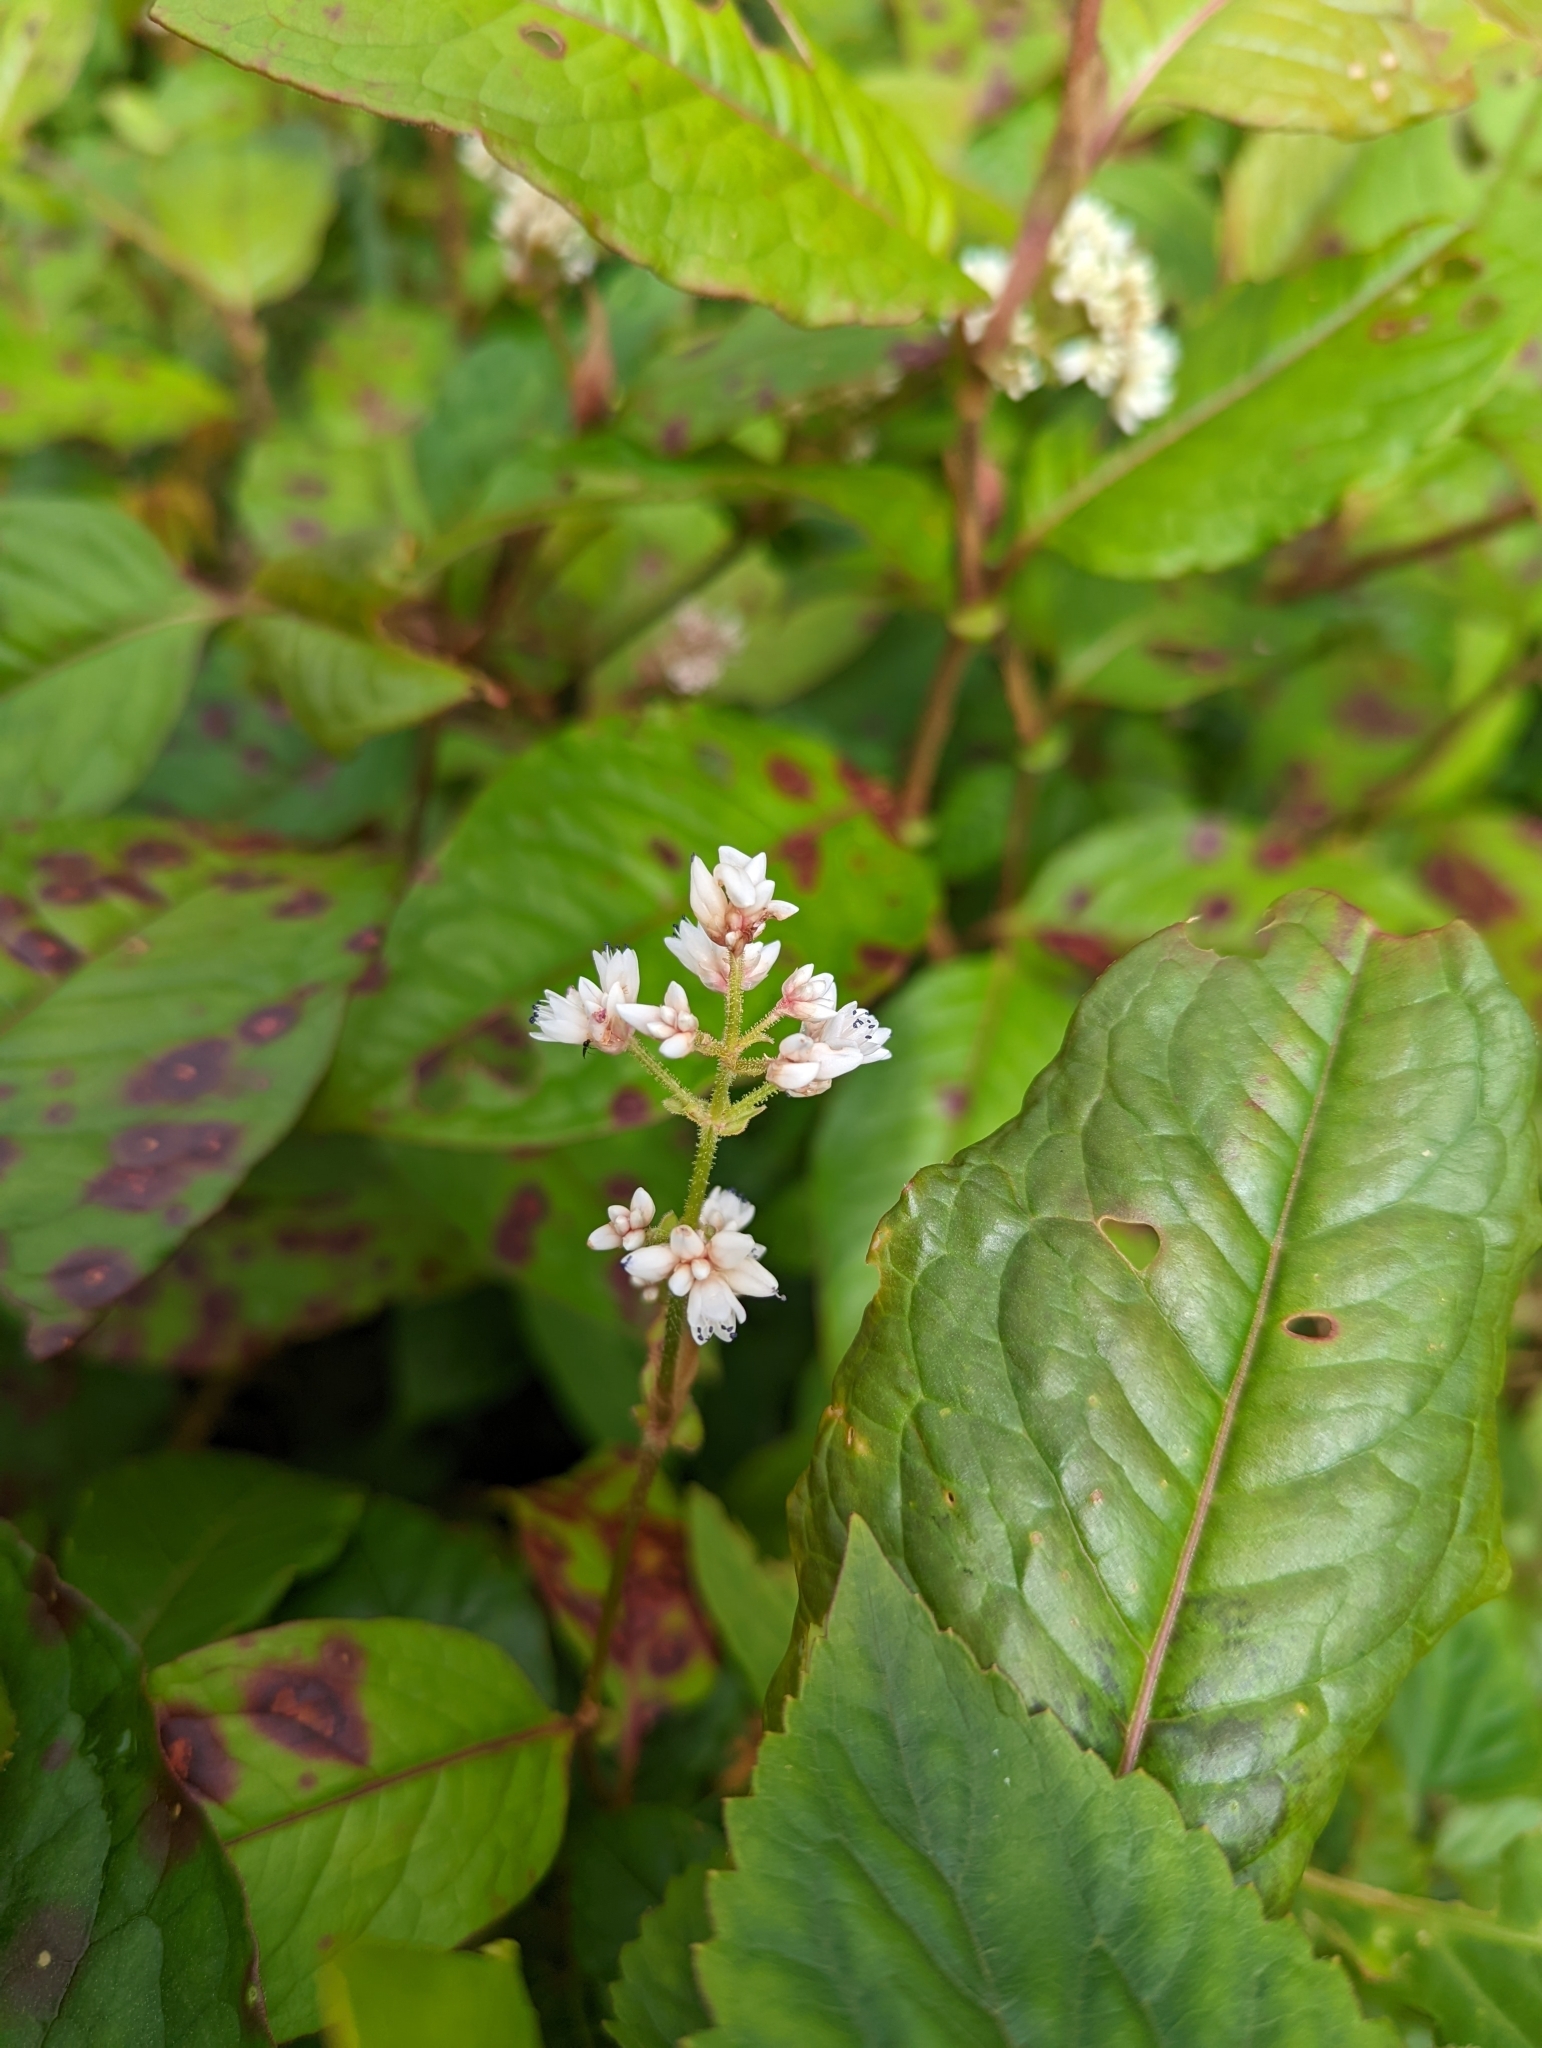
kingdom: Plantae
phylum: Tracheophyta
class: Magnoliopsida
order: Caryophyllales
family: Polygonaceae
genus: Persicaria
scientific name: Persicaria chinensis
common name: Chinese knotweed
